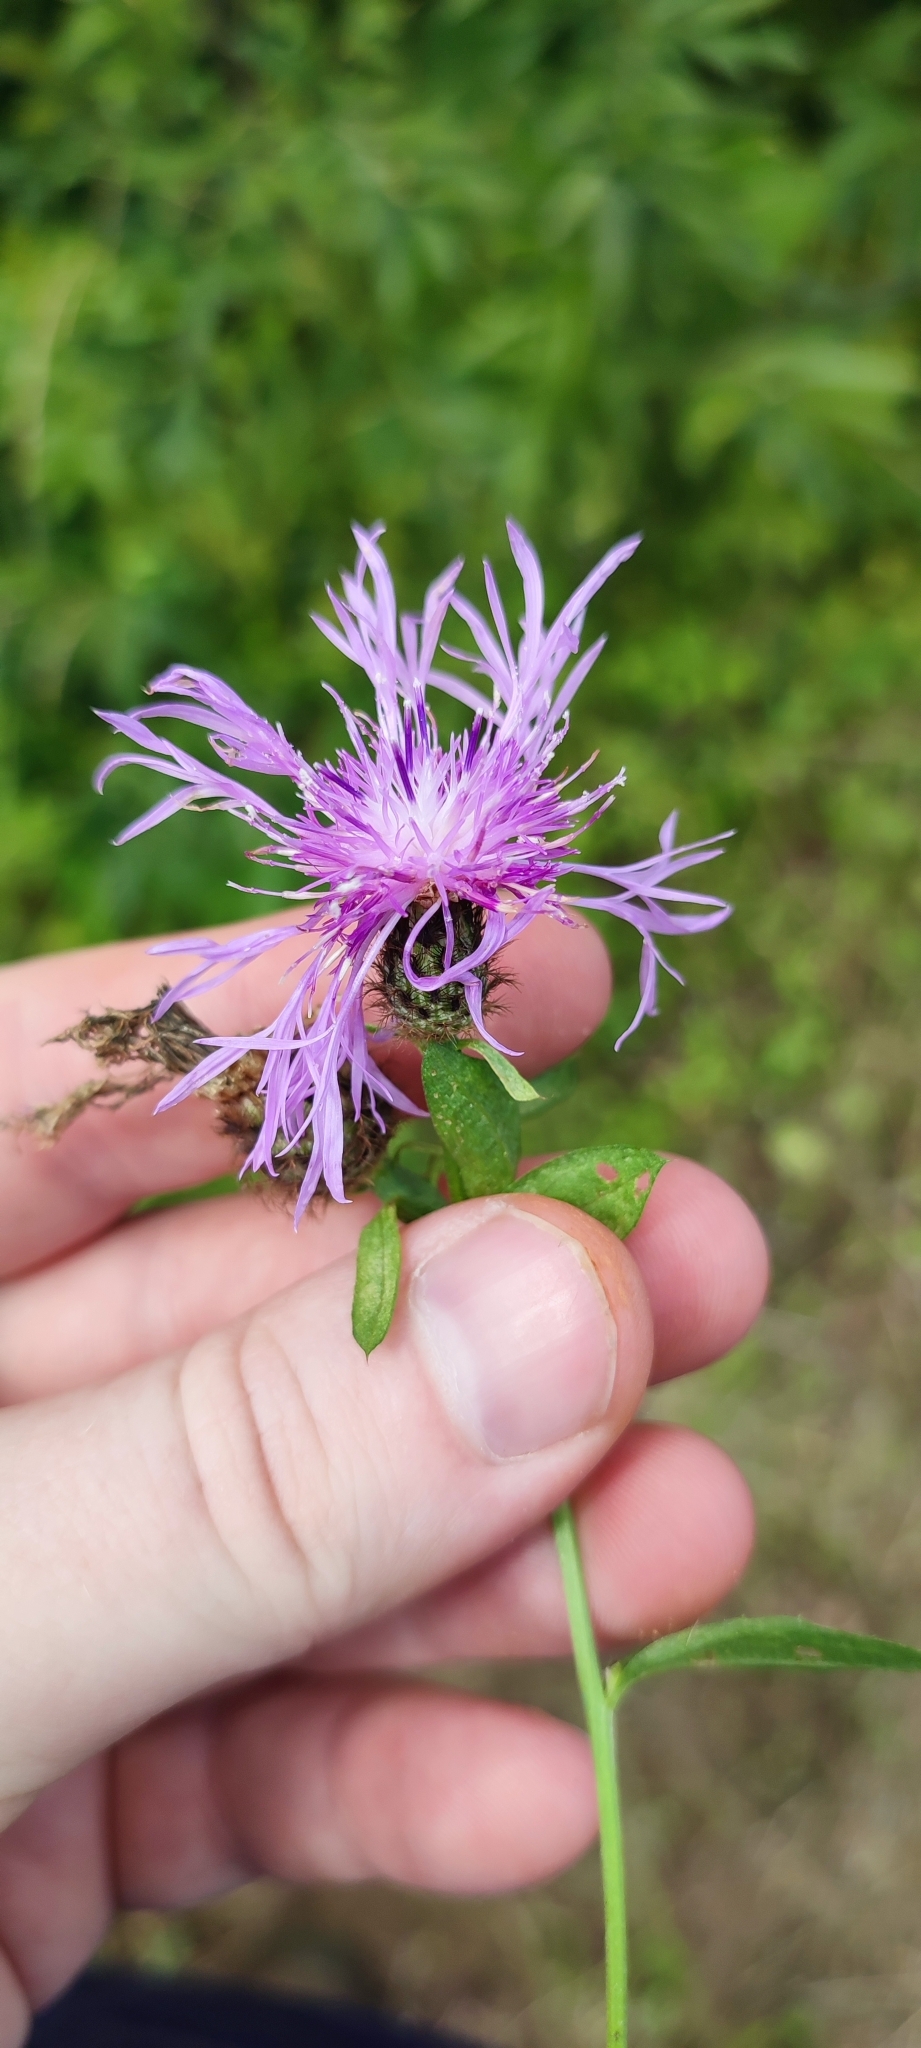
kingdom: Plantae
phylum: Tracheophyta
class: Magnoliopsida
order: Asterales
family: Asteraceae
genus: Centaurea
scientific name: Centaurea pseudophrygia
